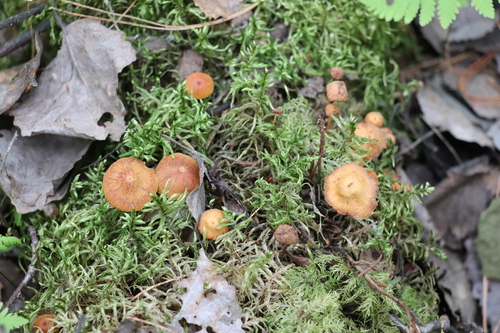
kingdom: Fungi
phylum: Basidiomycota
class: Agaricomycetes
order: Agaricales
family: Mycenaceae
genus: Xeromphalina
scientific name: Xeromphalina campanella
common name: Pinewood gingertail
